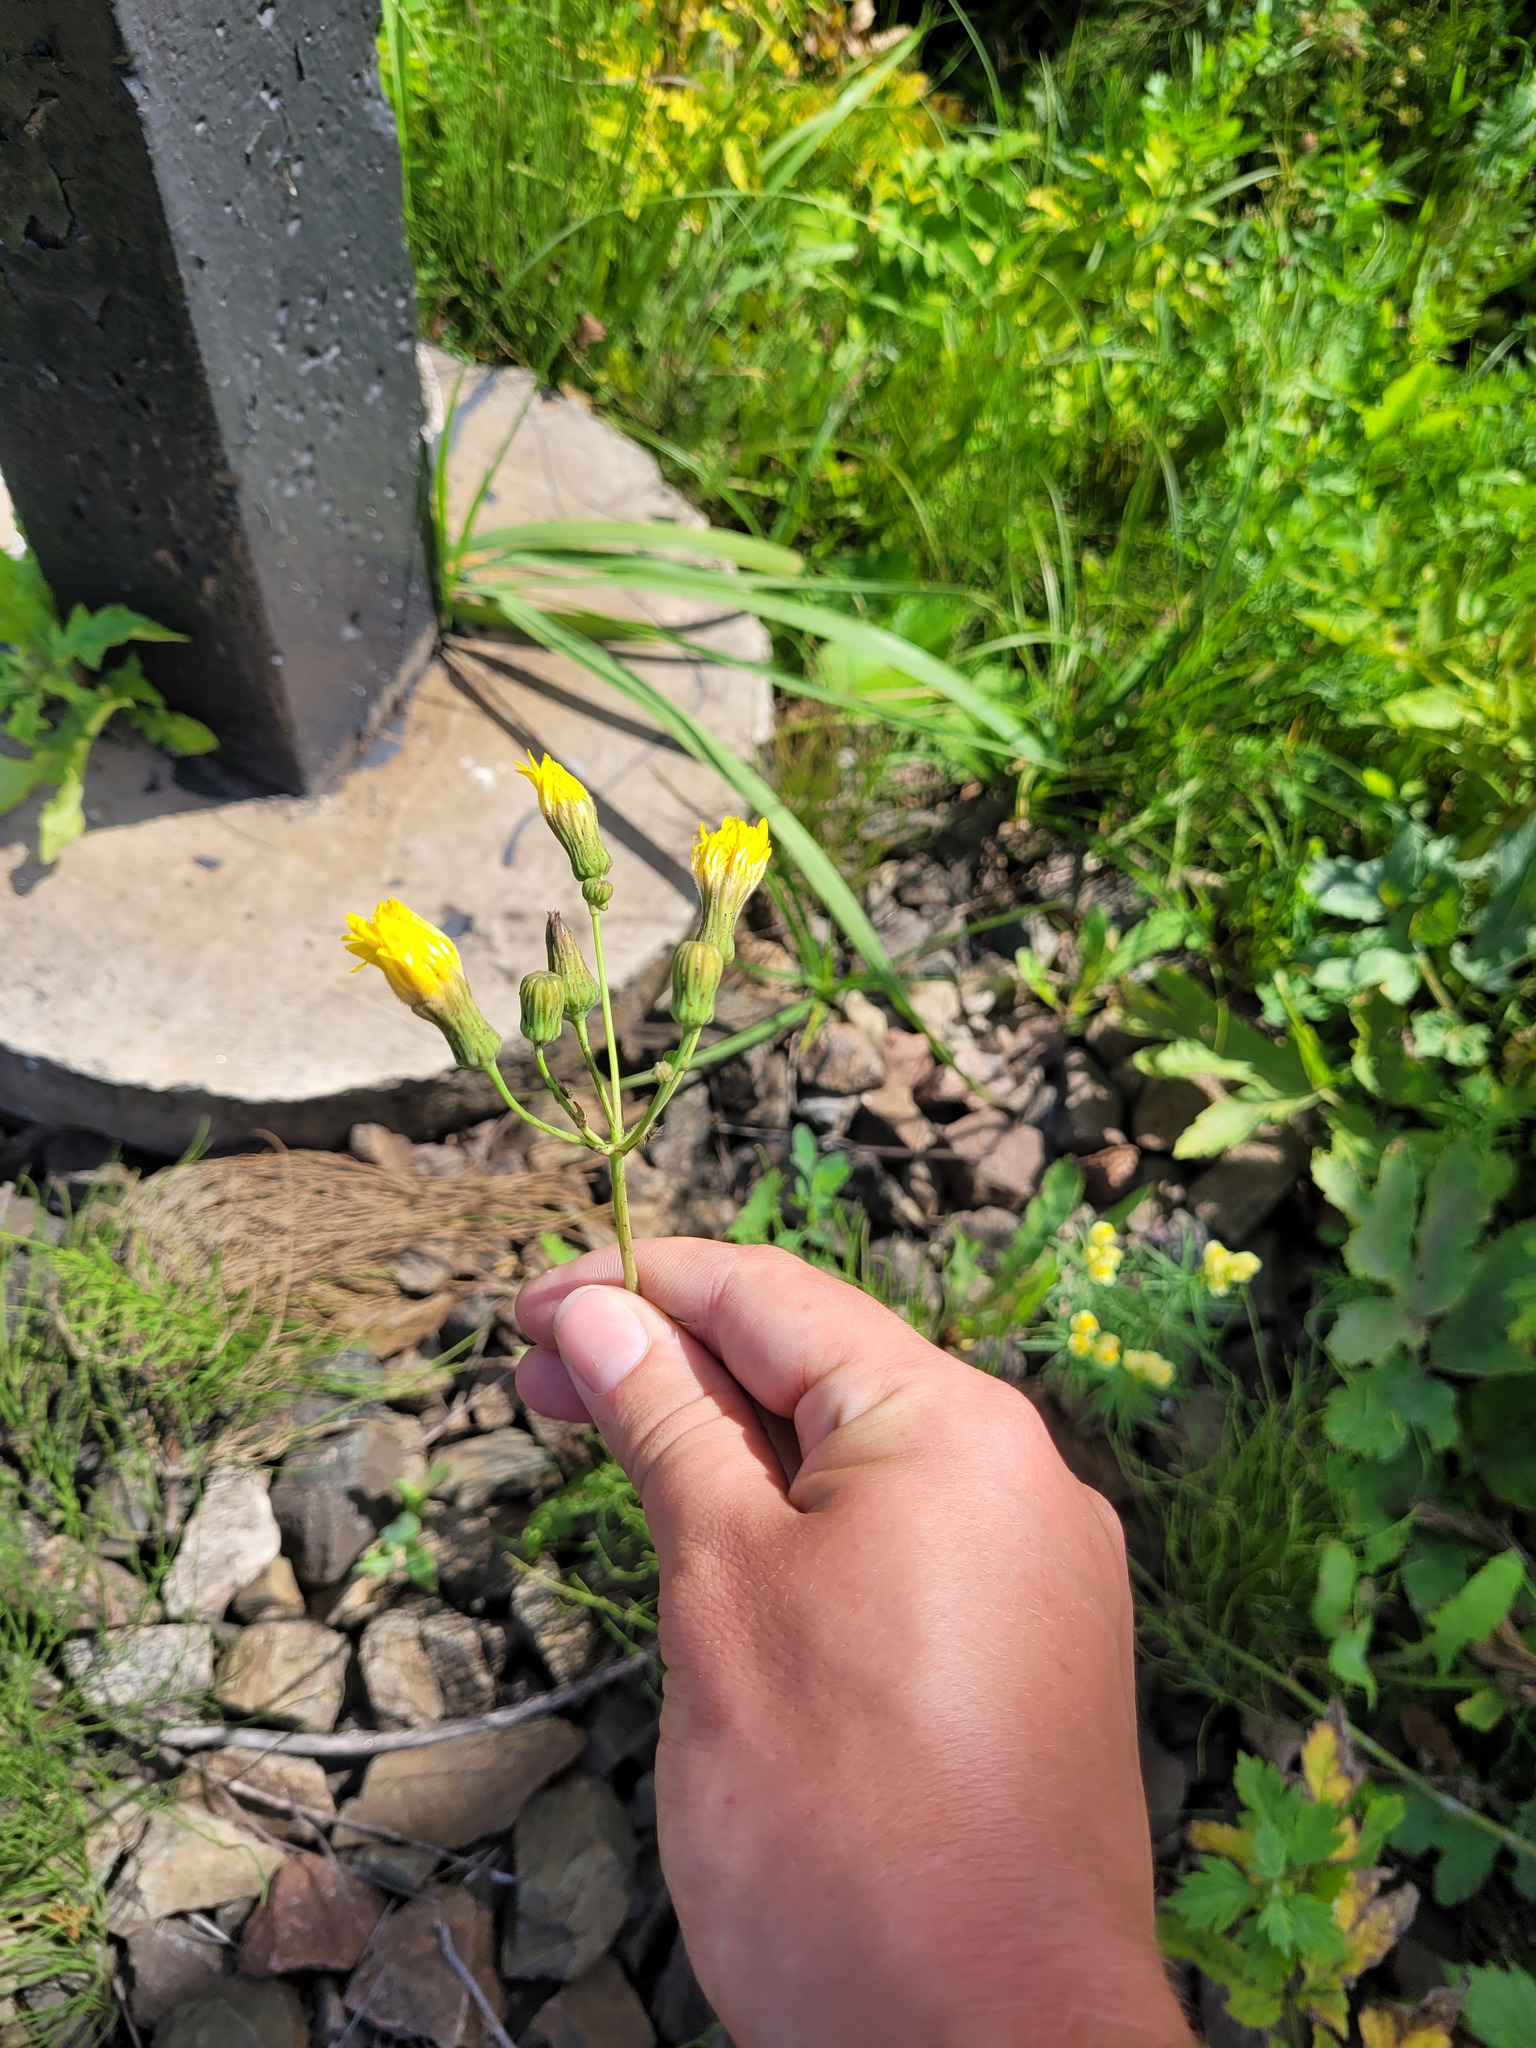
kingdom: Plantae
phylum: Tracheophyta
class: Magnoliopsida
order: Asterales
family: Asteraceae
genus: Sonchus
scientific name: Sonchus arvensis
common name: Perennial sow-thistle
